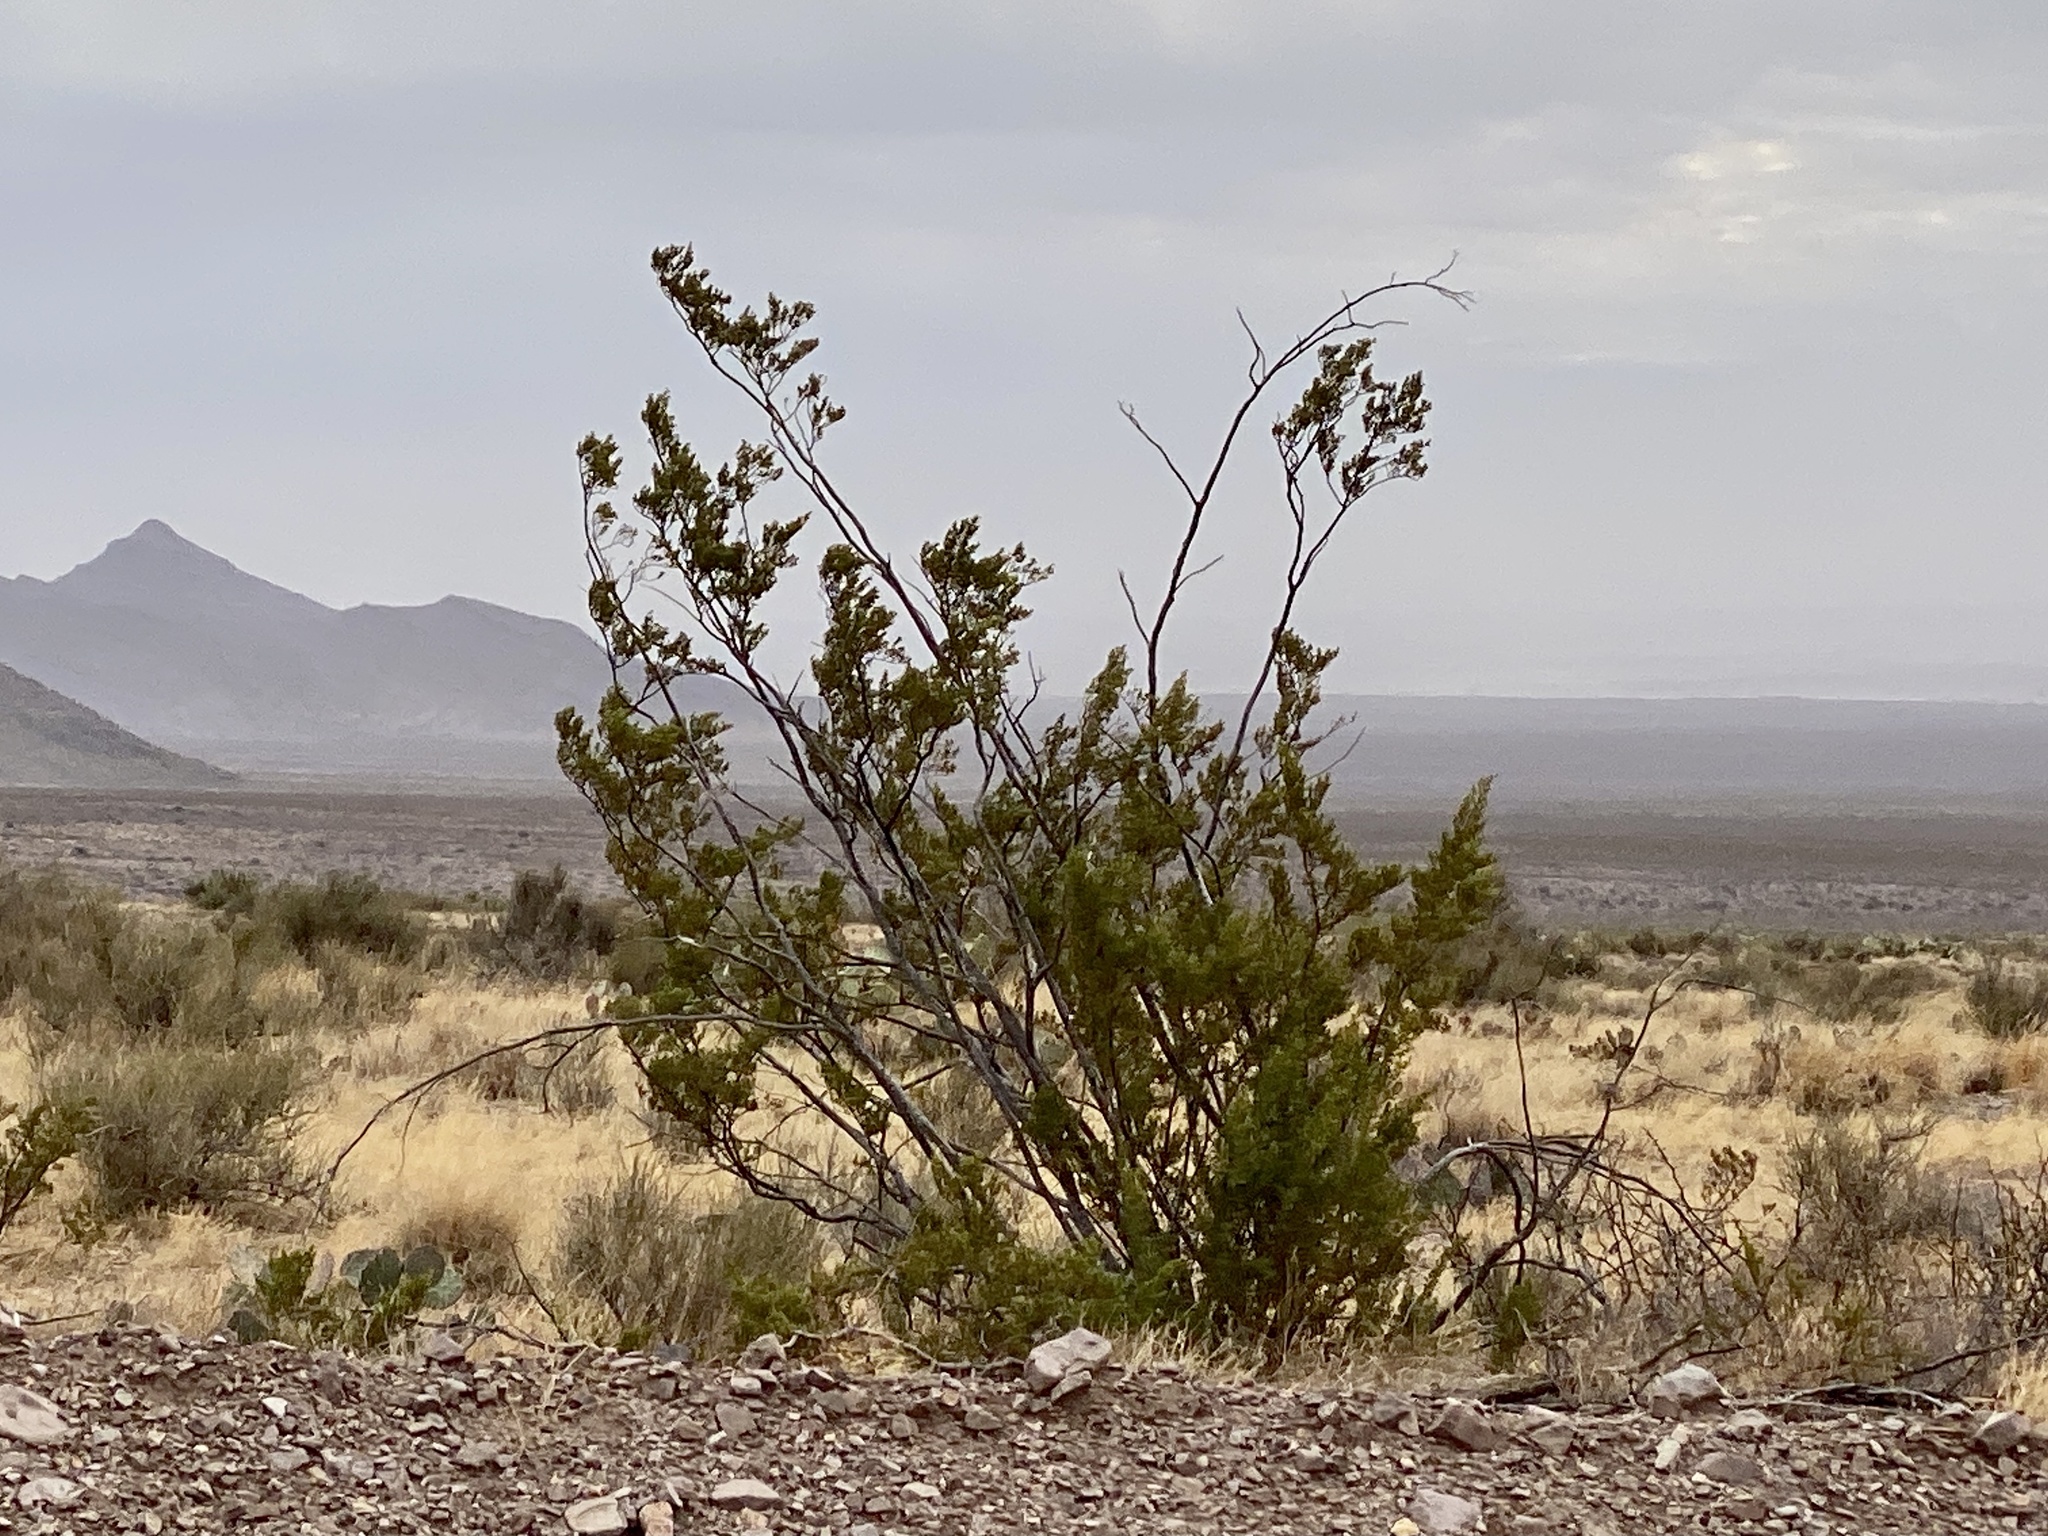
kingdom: Plantae
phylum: Tracheophyta
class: Magnoliopsida
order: Zygophyllales
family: Zygophyllaceae
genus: Larrea
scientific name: Larrea tridentata
